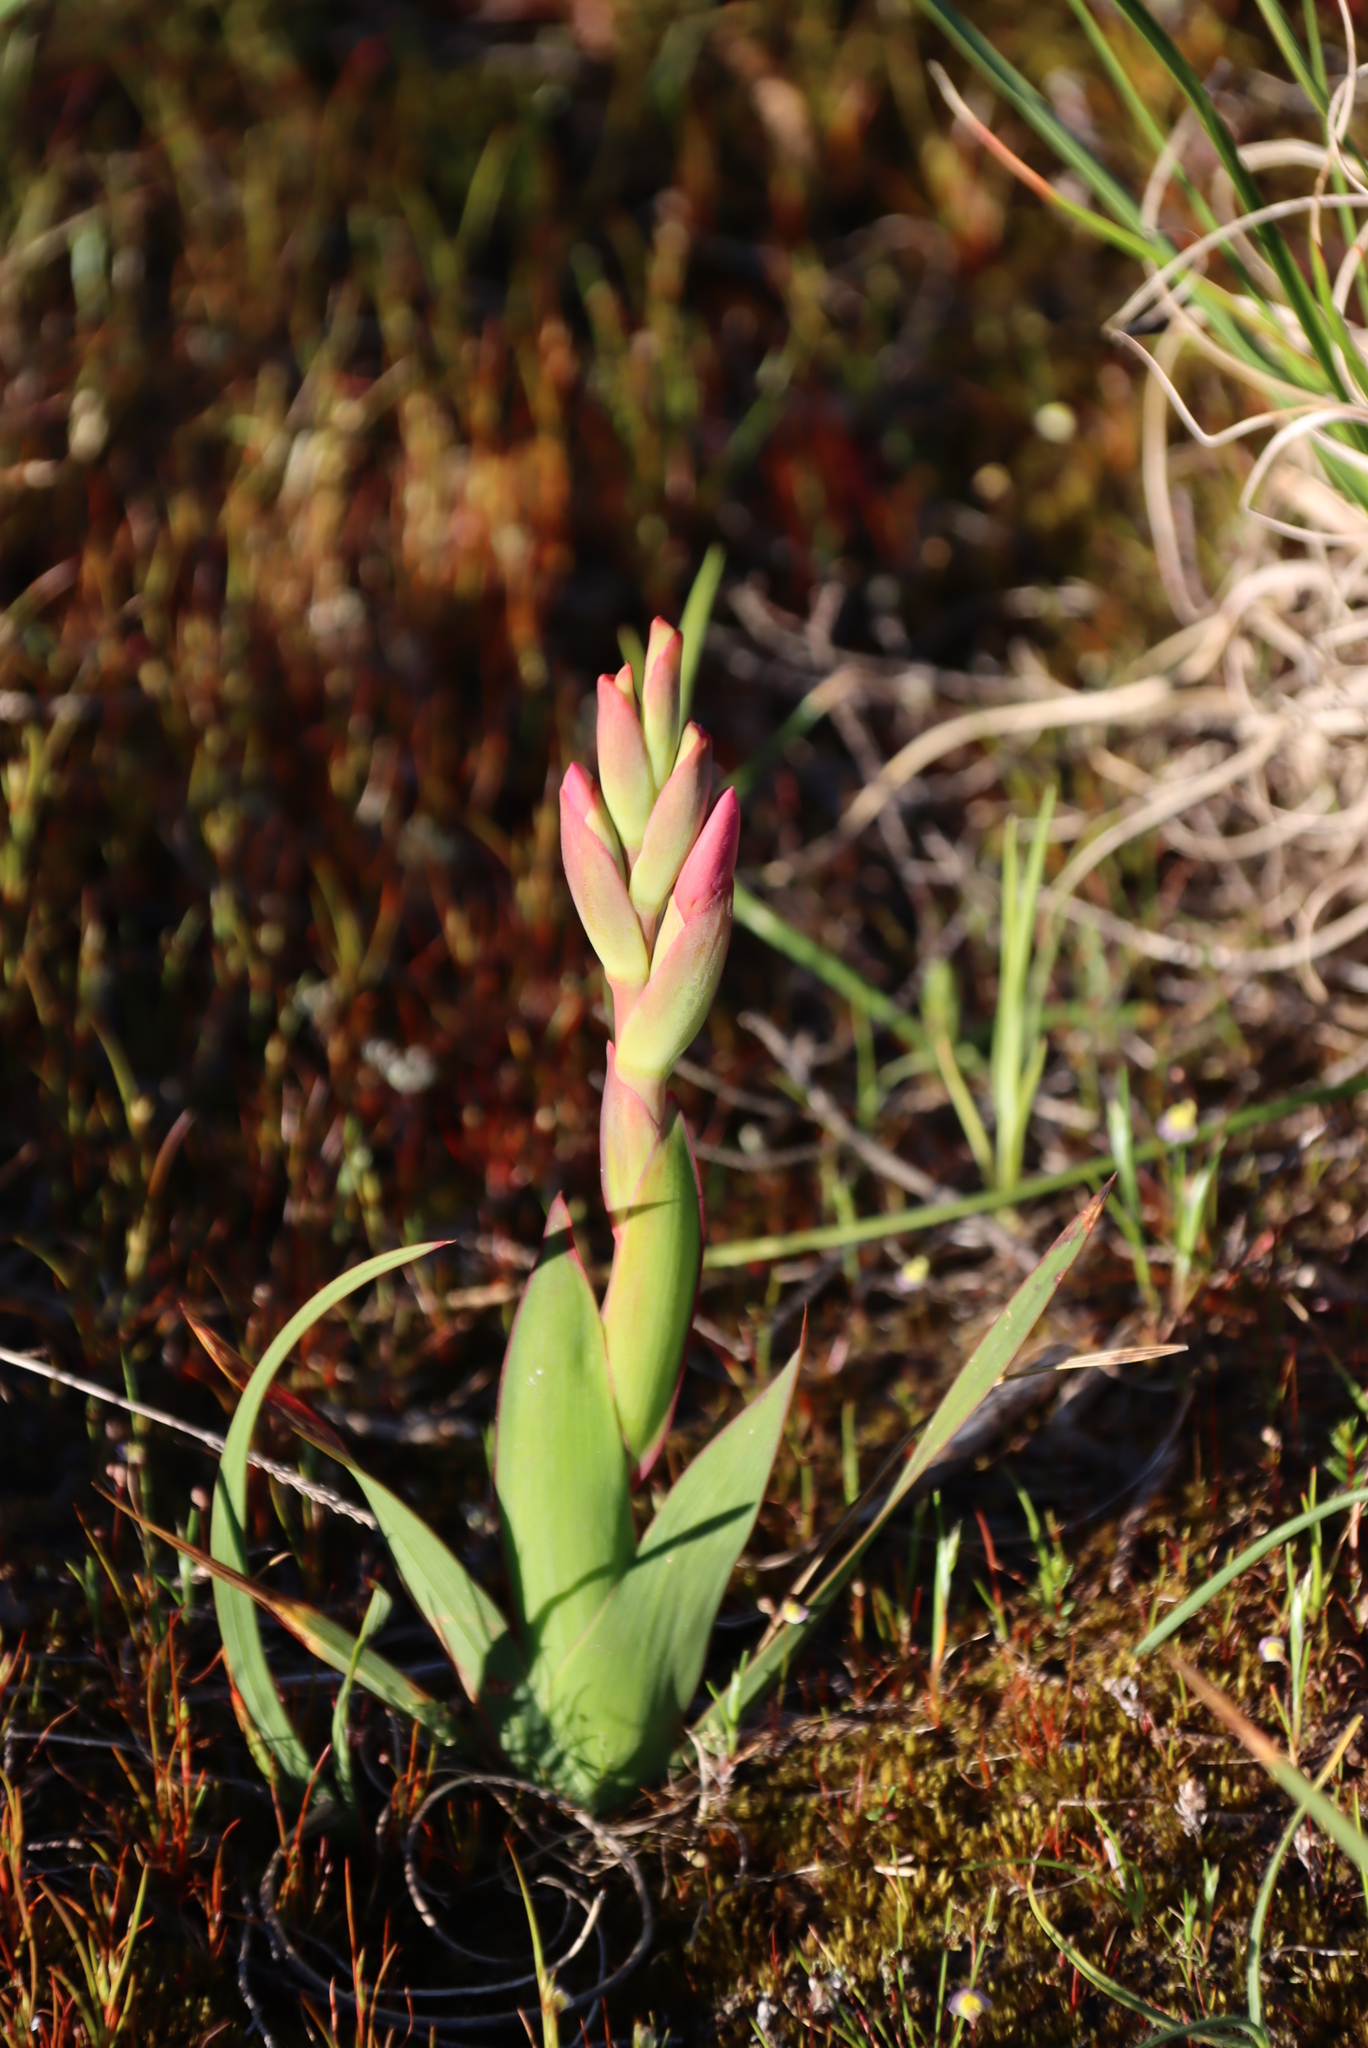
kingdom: Plantae
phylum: Tracheophyta
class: Liliopsida
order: Asparagales
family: Iridaceae
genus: Watsonia
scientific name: Watsonia coccinea
